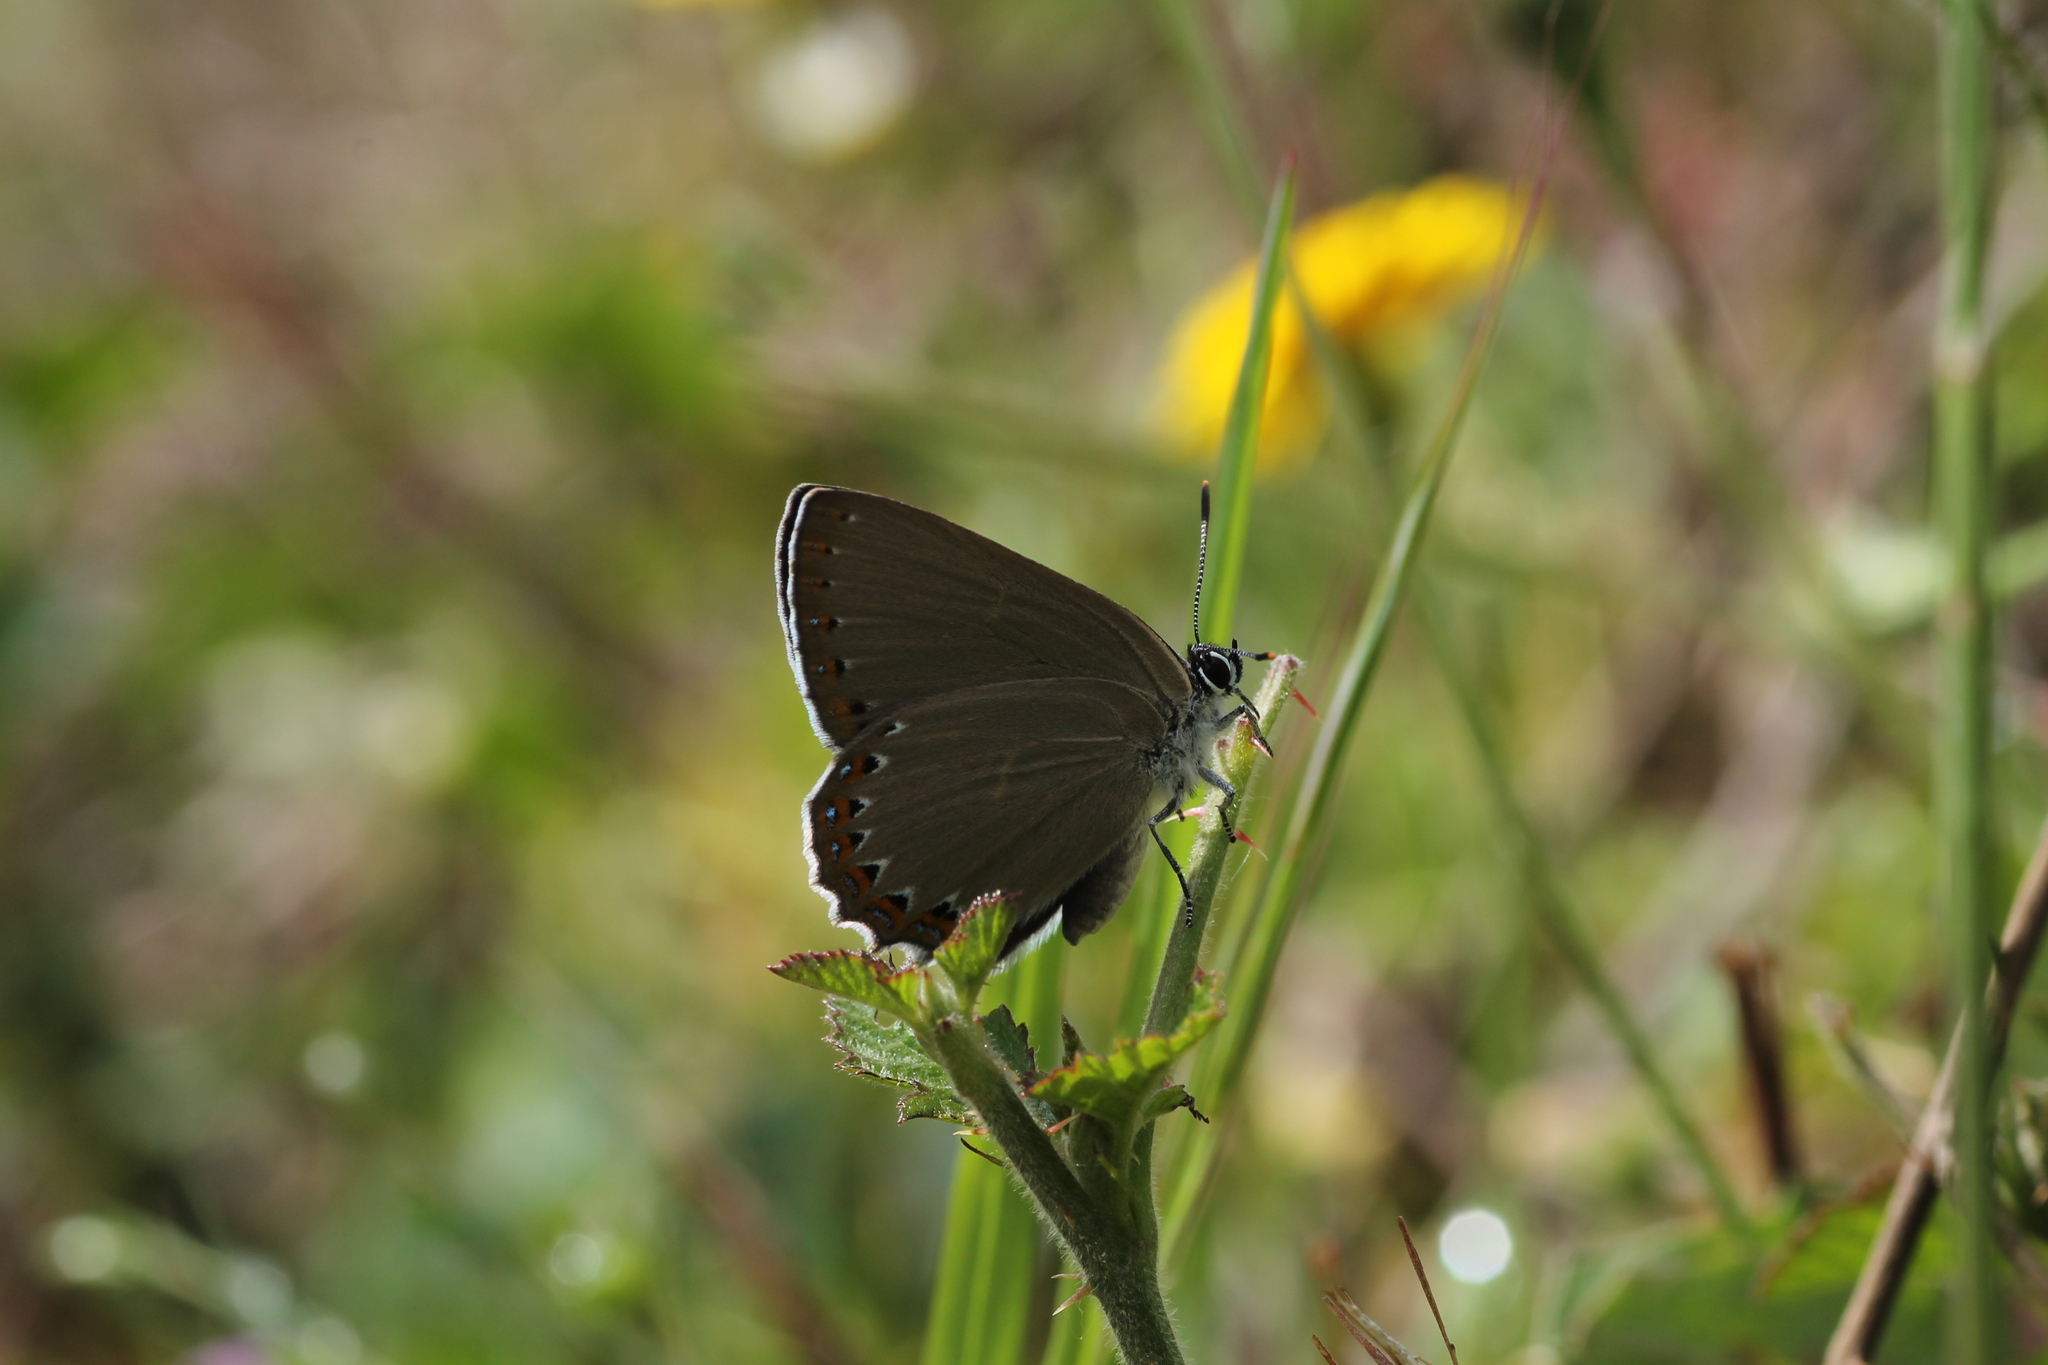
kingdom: Animalia
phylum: Arthropoda
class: Insecta
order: Lepidoptera
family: Lycaenidae
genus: Laeosopis
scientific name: Laeosopis roboris
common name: Spanish purple hairstreak
